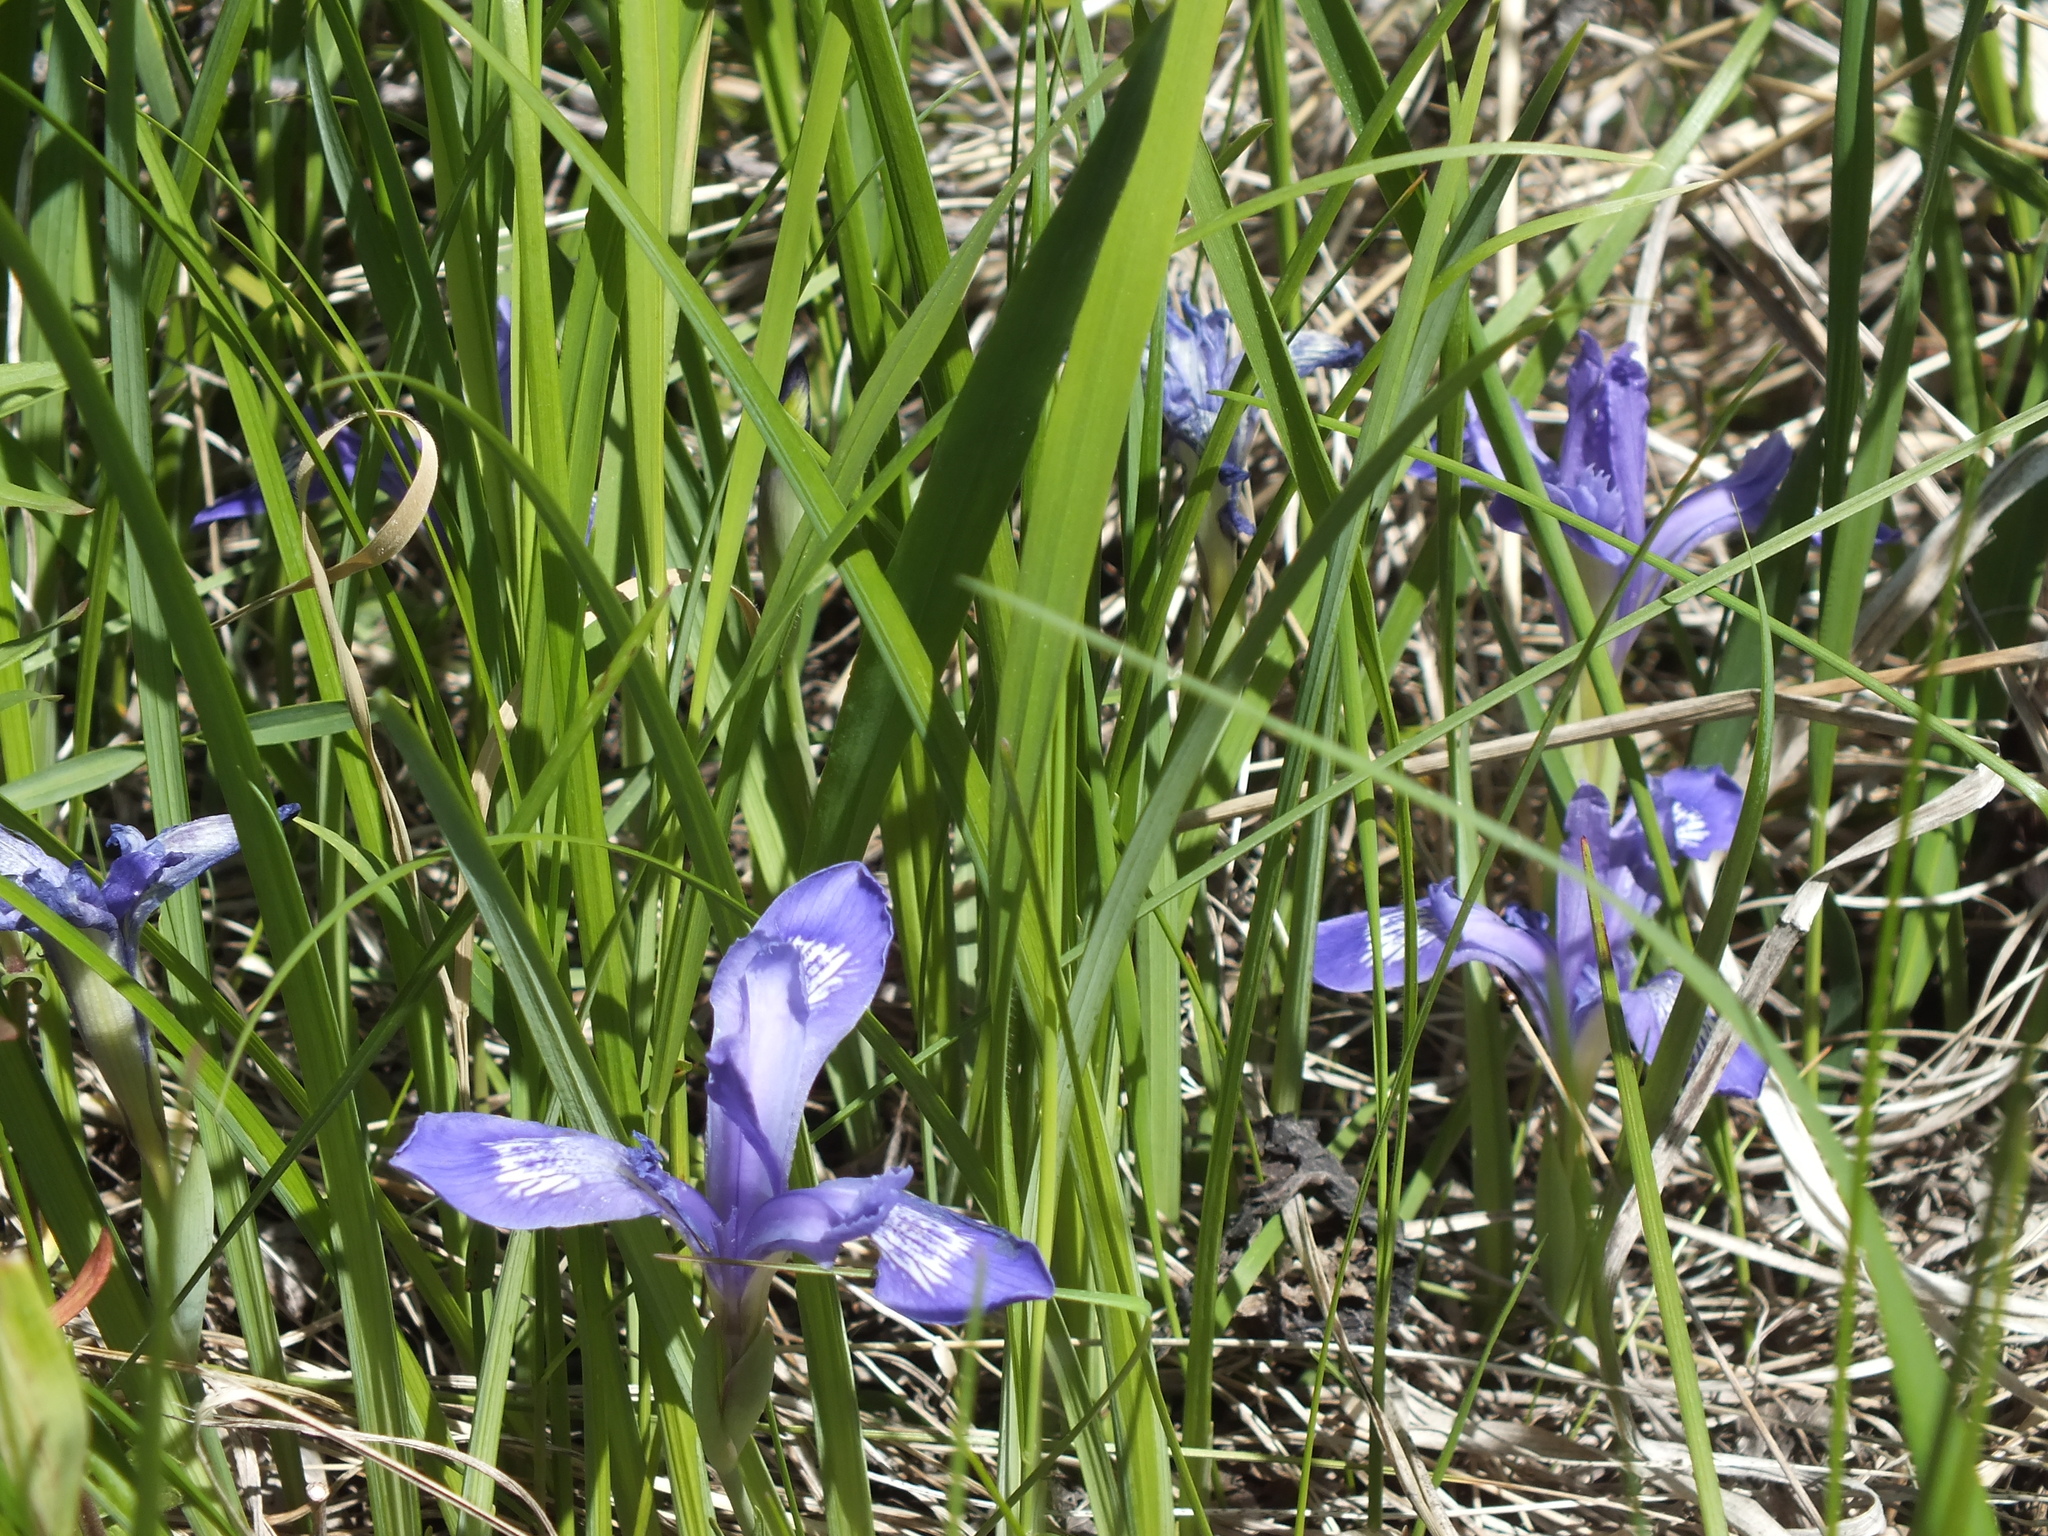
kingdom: Plantae
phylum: Tracheophyta
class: Liliopsida
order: Asparagales
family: Iridaceae
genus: Iris
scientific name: Iris ruthenica
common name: Purple-bract iris
